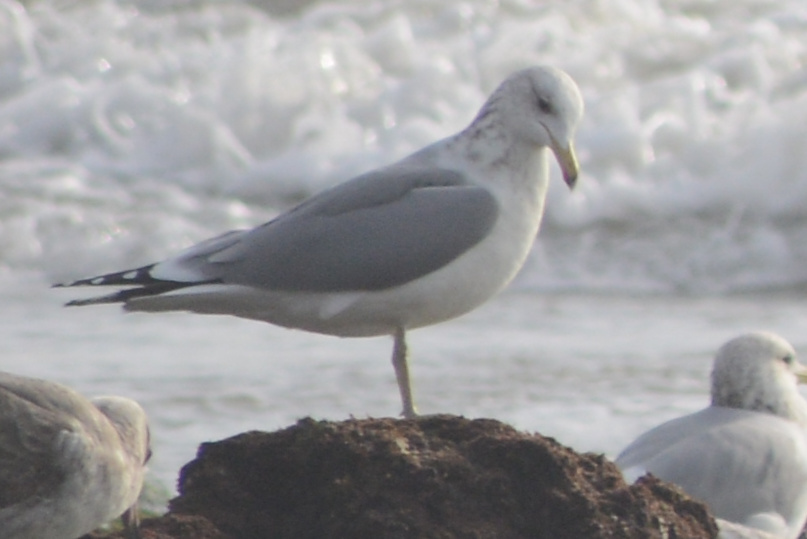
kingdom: Animalia
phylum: Chordata
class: Aves
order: Charadriiformes
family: Laridae
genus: Larus
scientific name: Larus californicus
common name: California gull
